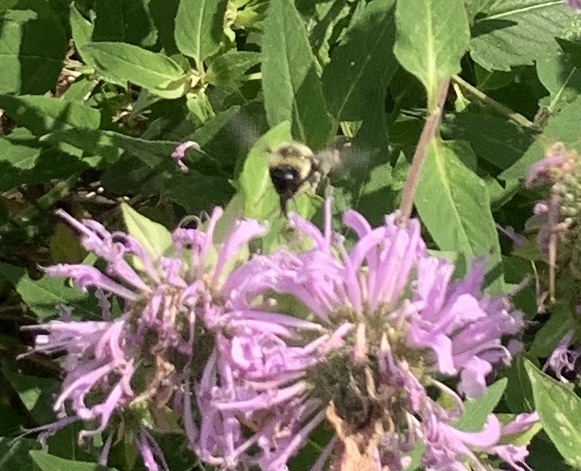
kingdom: Animalia
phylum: Arthropoda
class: Insecta
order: Hymenoptera
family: Apidae
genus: Bombus
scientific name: Bombus impatiens
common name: Common eastern bumble bee
